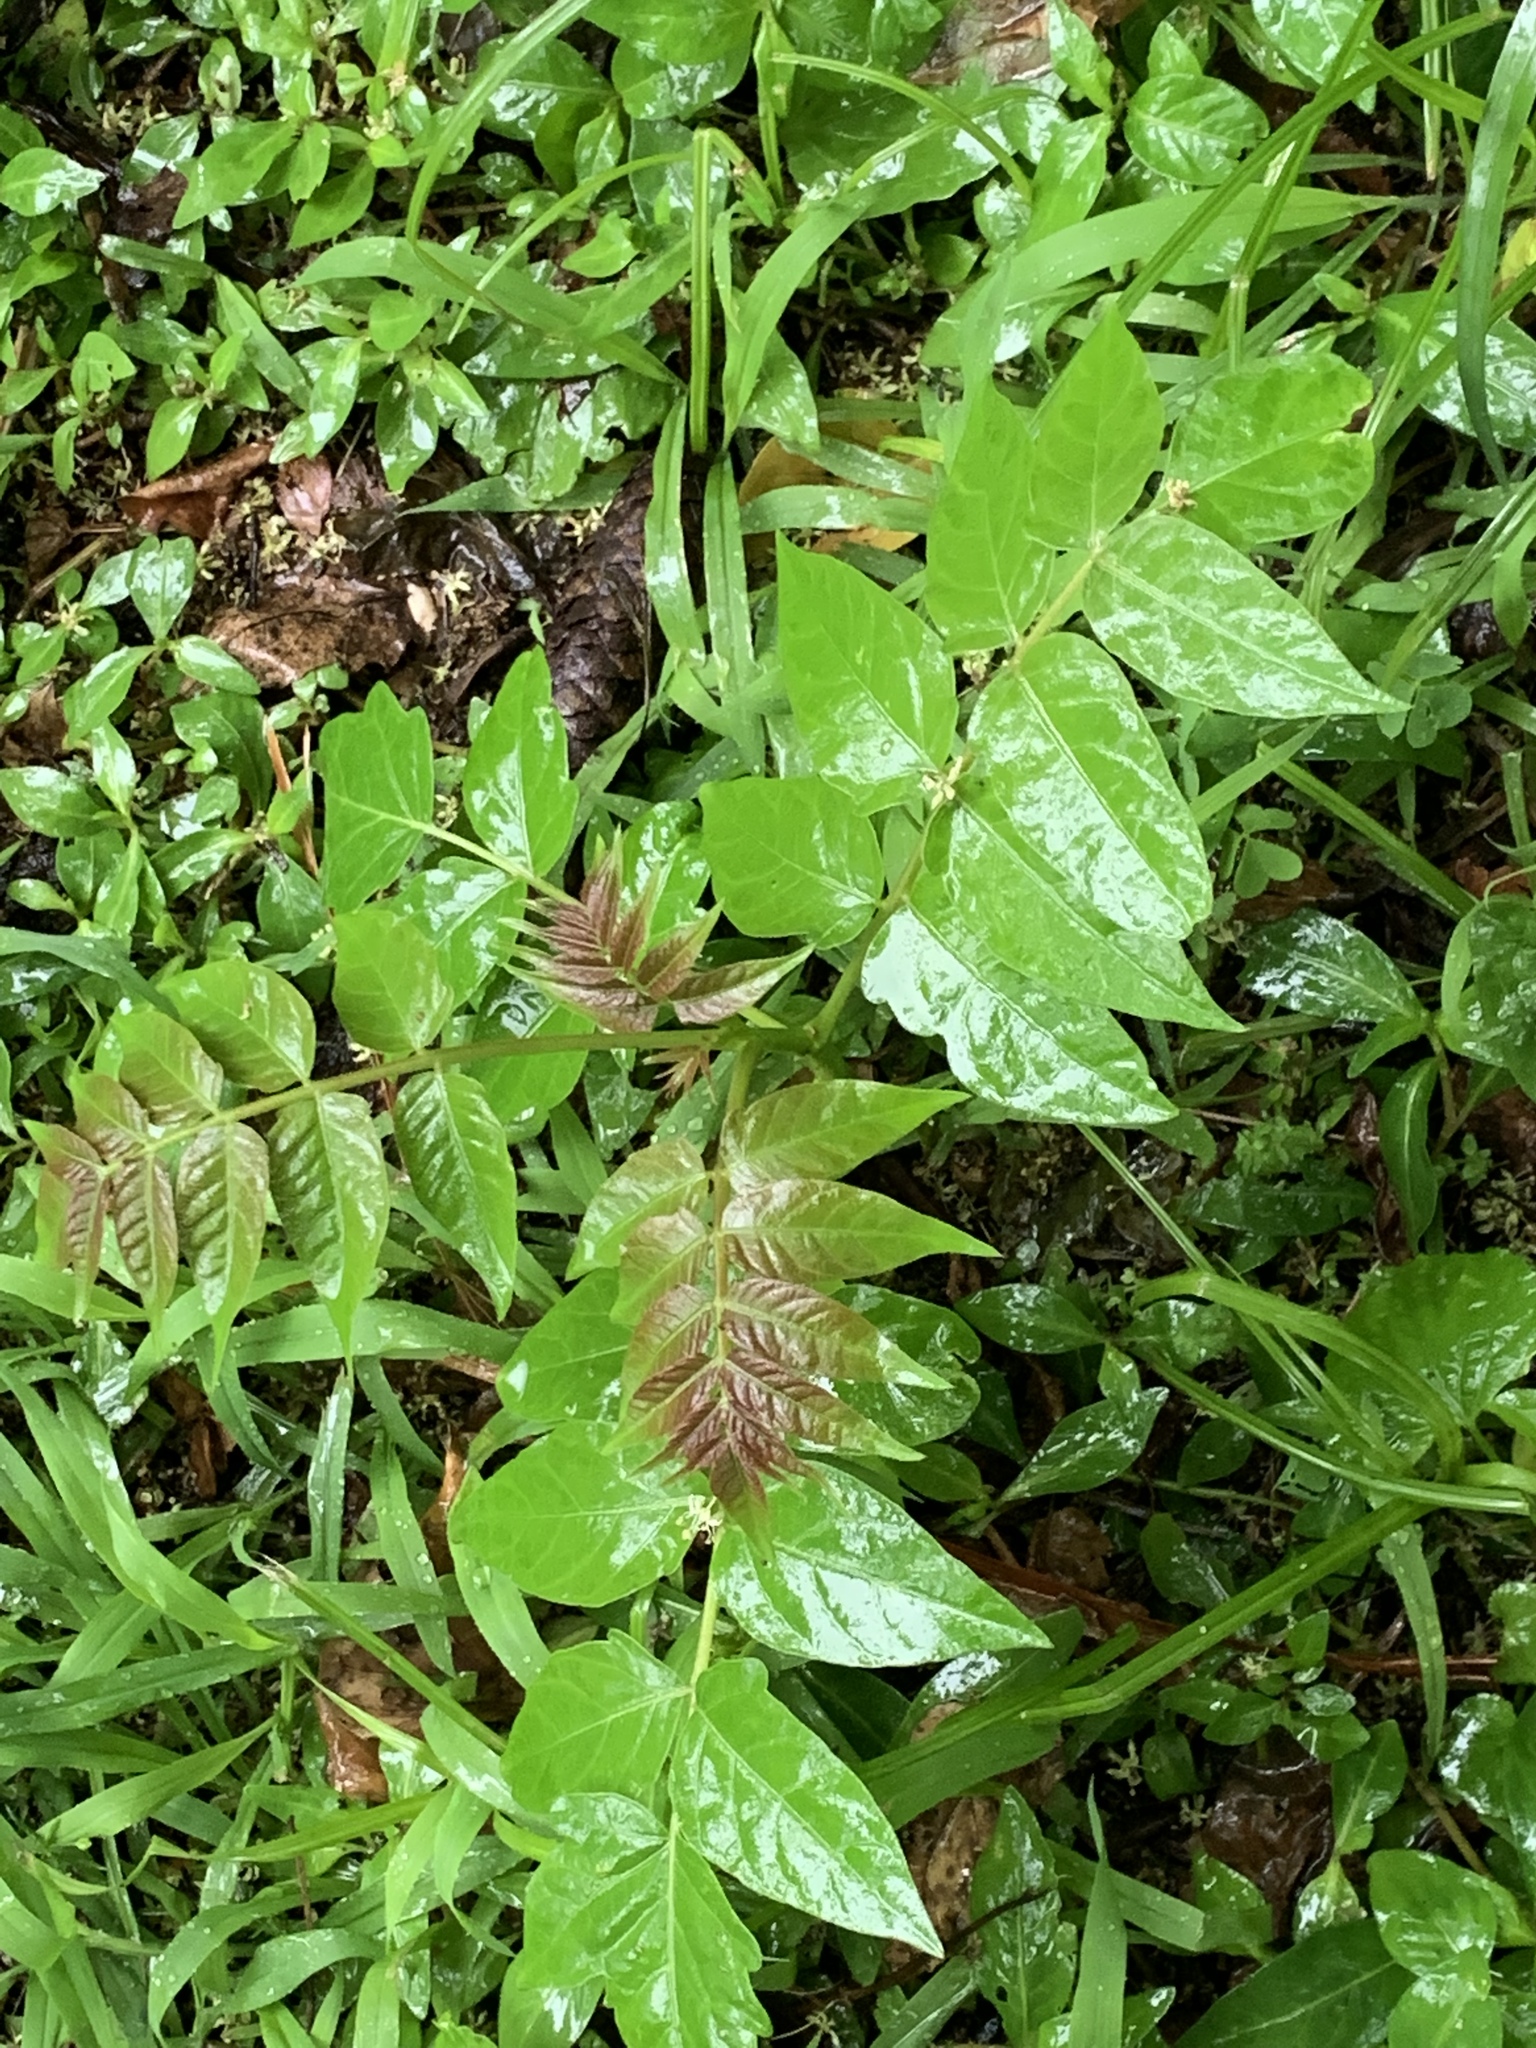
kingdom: Plantae
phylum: Tracheophyta
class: Magnoliopsida
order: Sapindales
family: Simaroubaceae
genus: Ailanthus
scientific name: Ailanthus altissima
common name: Tree-of-heaven
